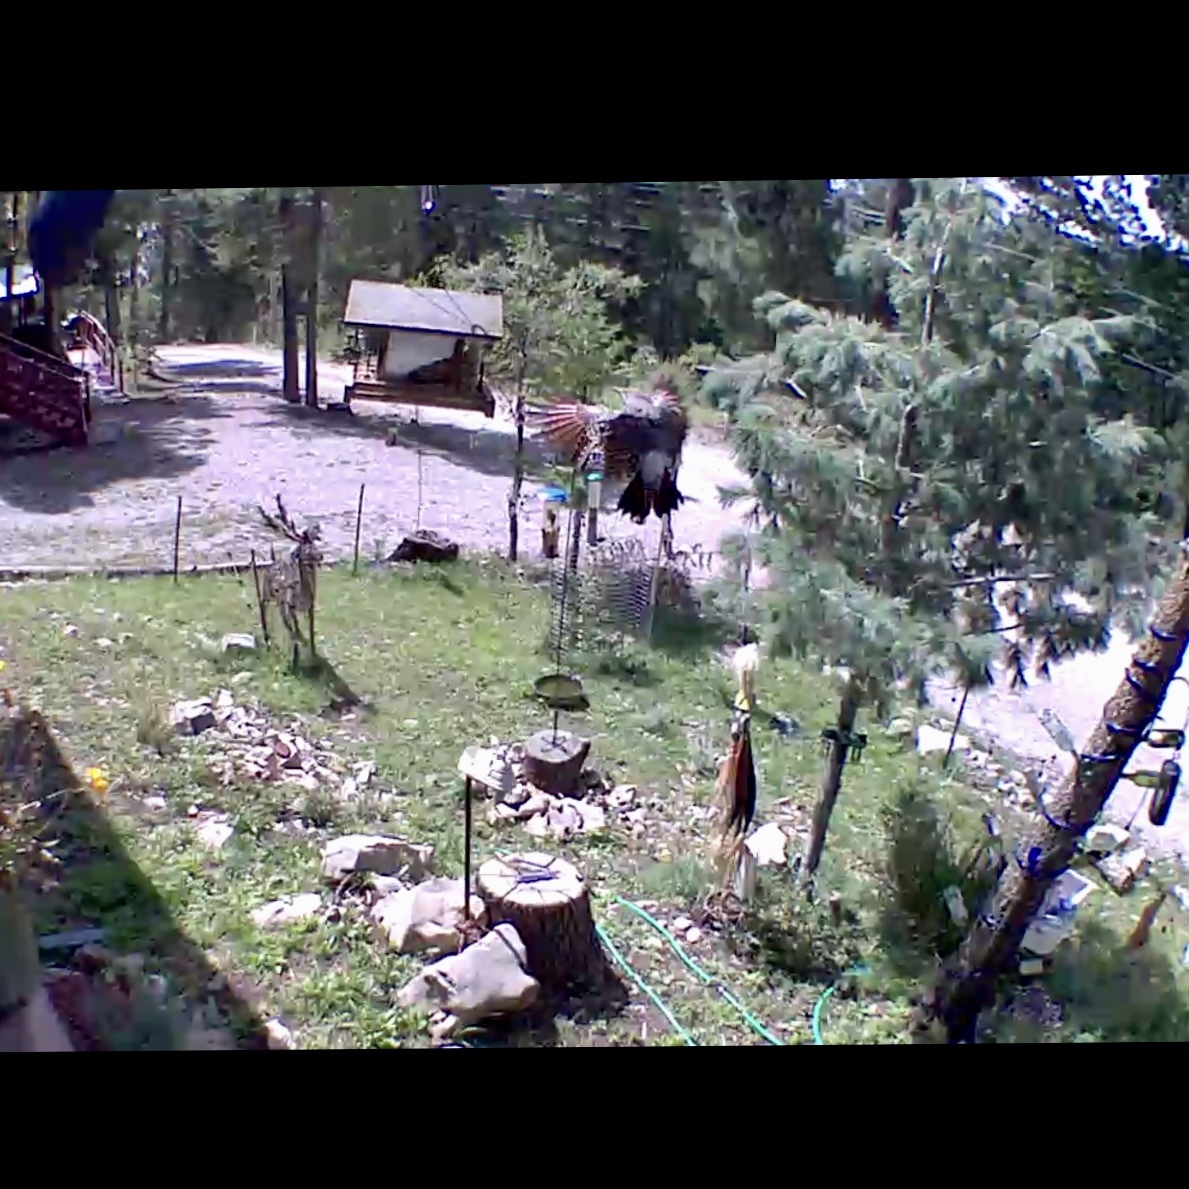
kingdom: Animalia
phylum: Chordata
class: Aves
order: Piciformes
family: Picidae
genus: Colaptes
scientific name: Colaptes auratus
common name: Northern flicker
